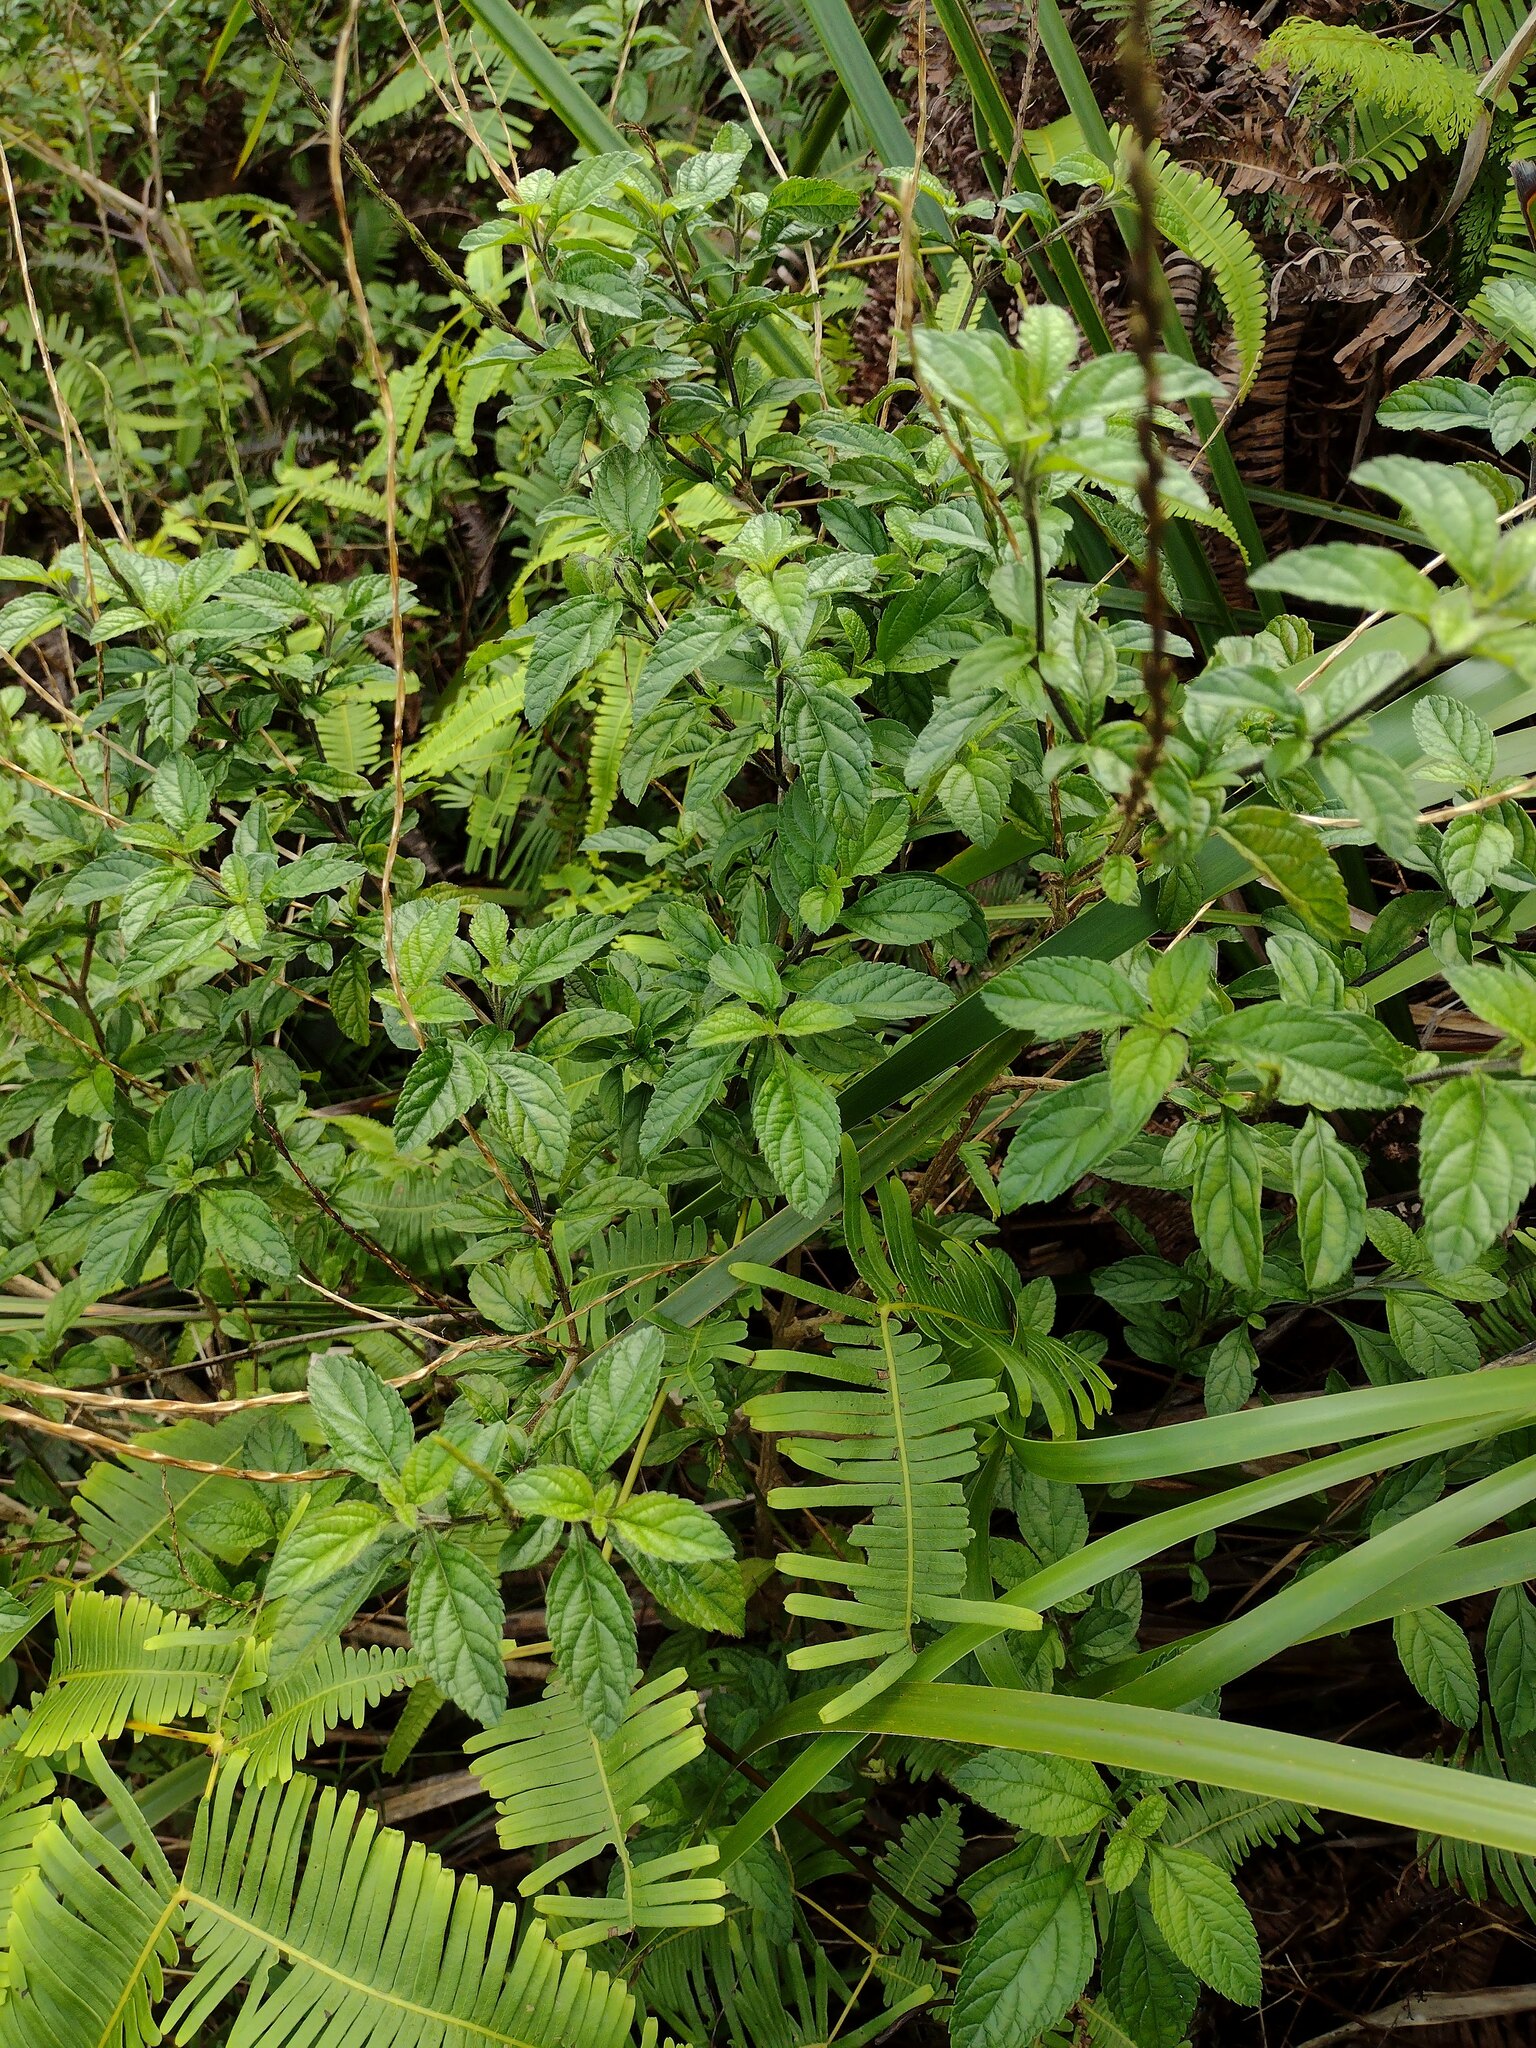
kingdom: Plantae
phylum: Tracheophyta
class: Magnoliopsida
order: Lamiales
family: Verbenaceae
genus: Stachytarpheta
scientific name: Stachytarpheta cayennensis
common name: Cayenne porterweed
